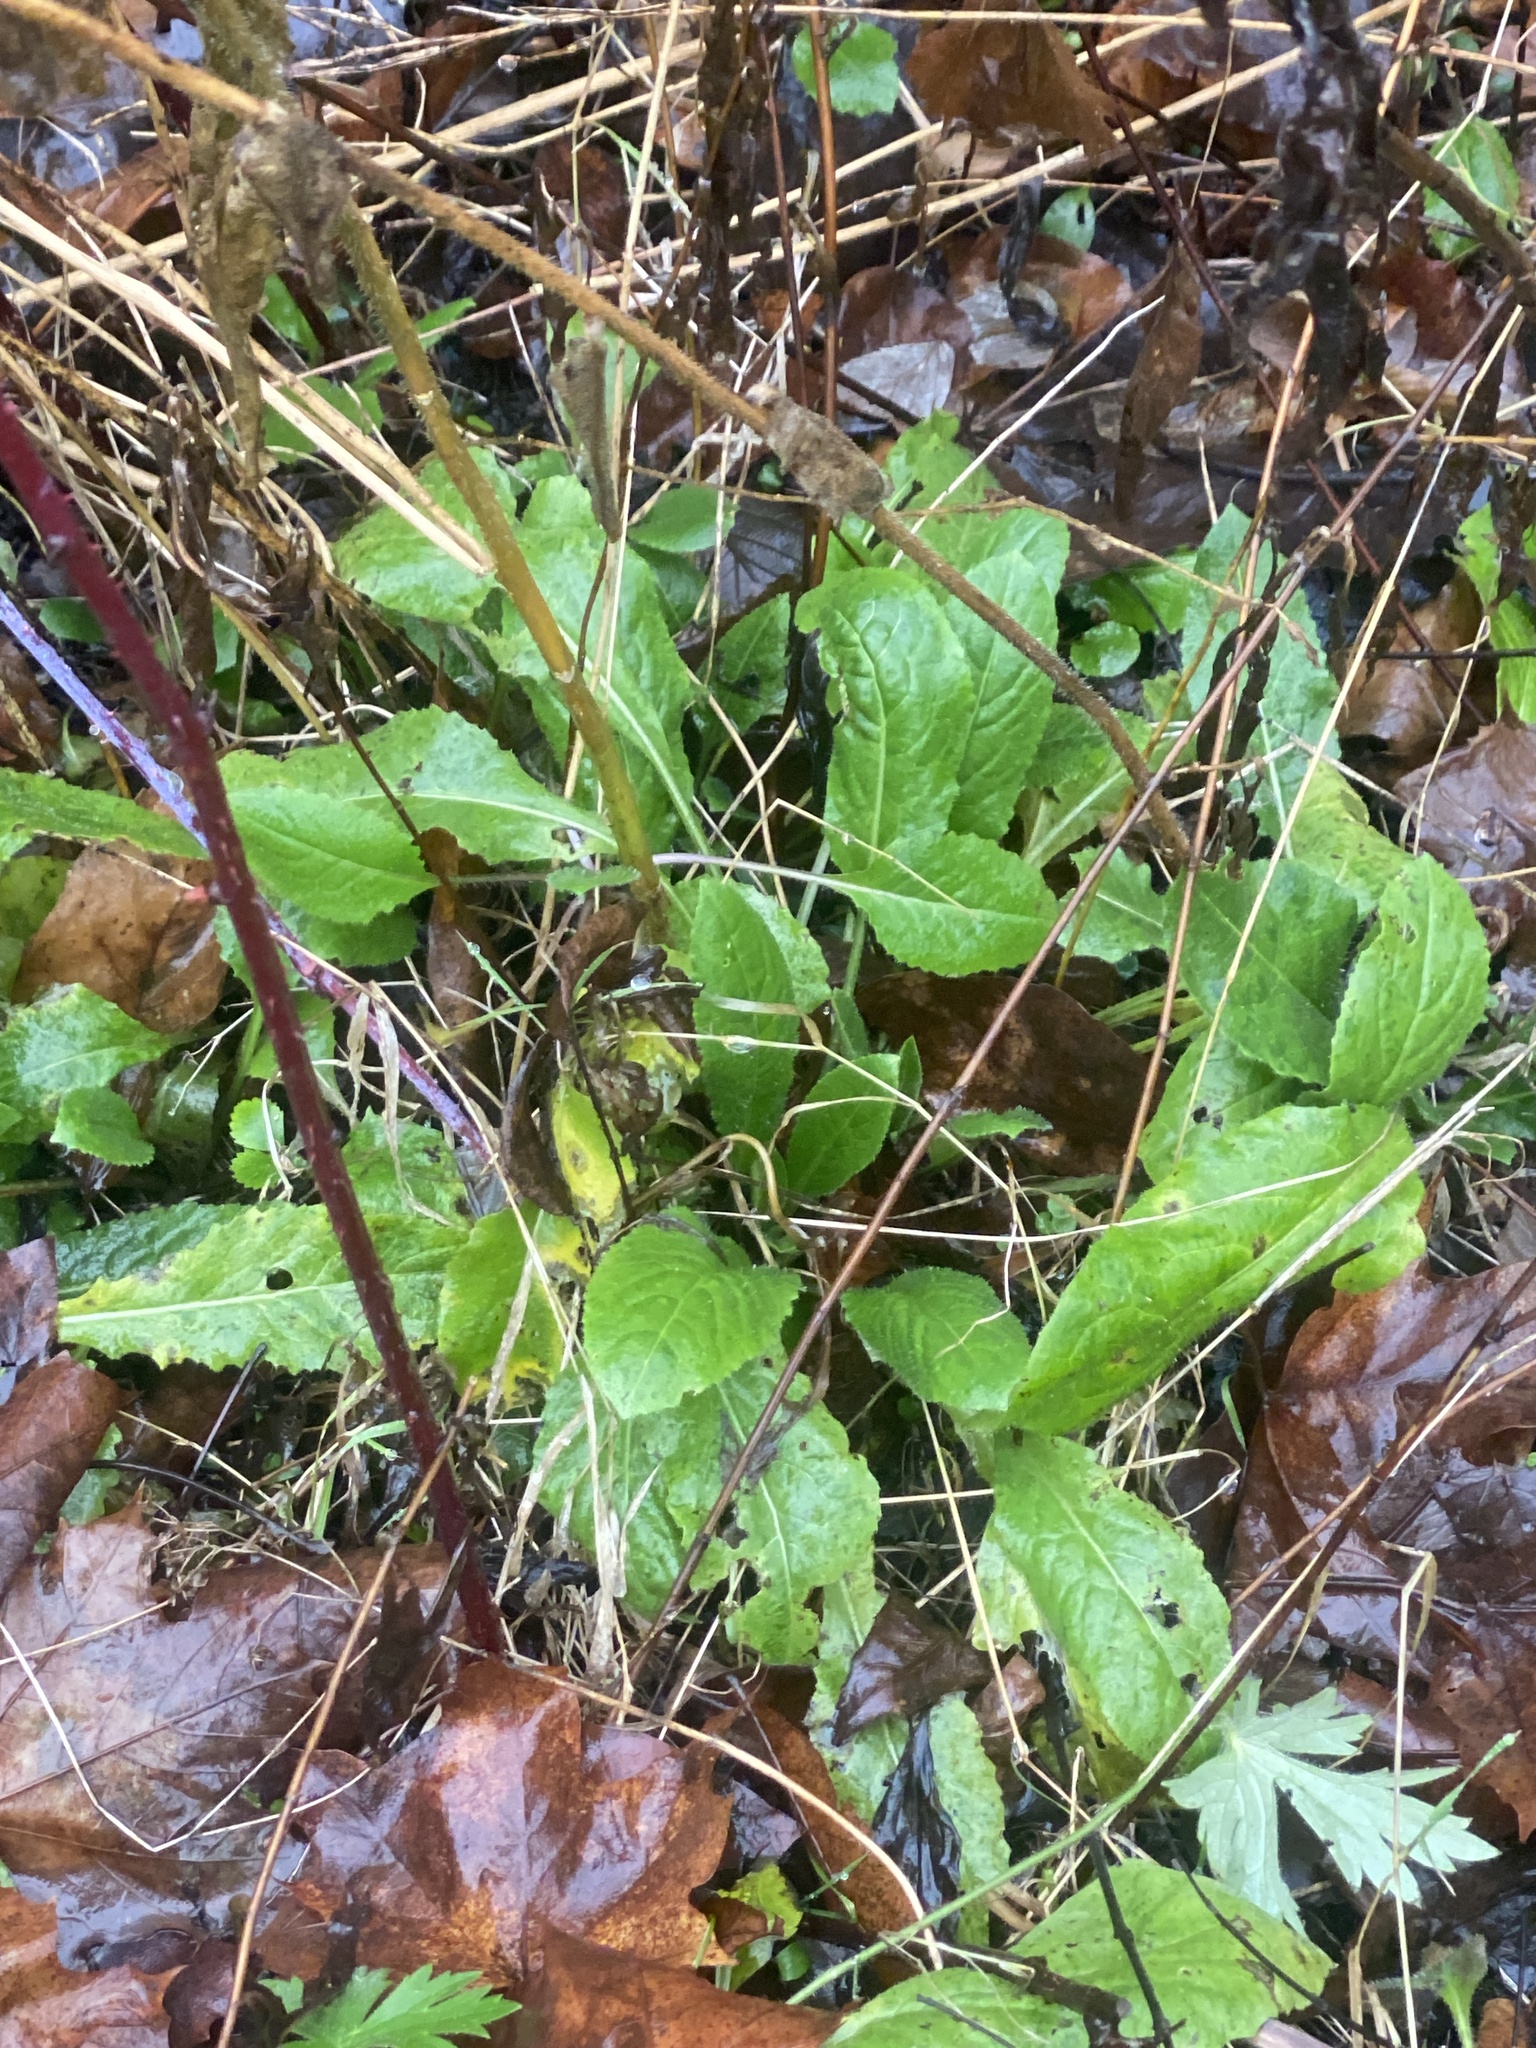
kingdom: Plantae
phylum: Tracheophyta
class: Magnoliopsida
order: Brassicales
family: Brassicaceae
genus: Hesperis
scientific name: Hesperis matronalis
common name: Dame's-violet
